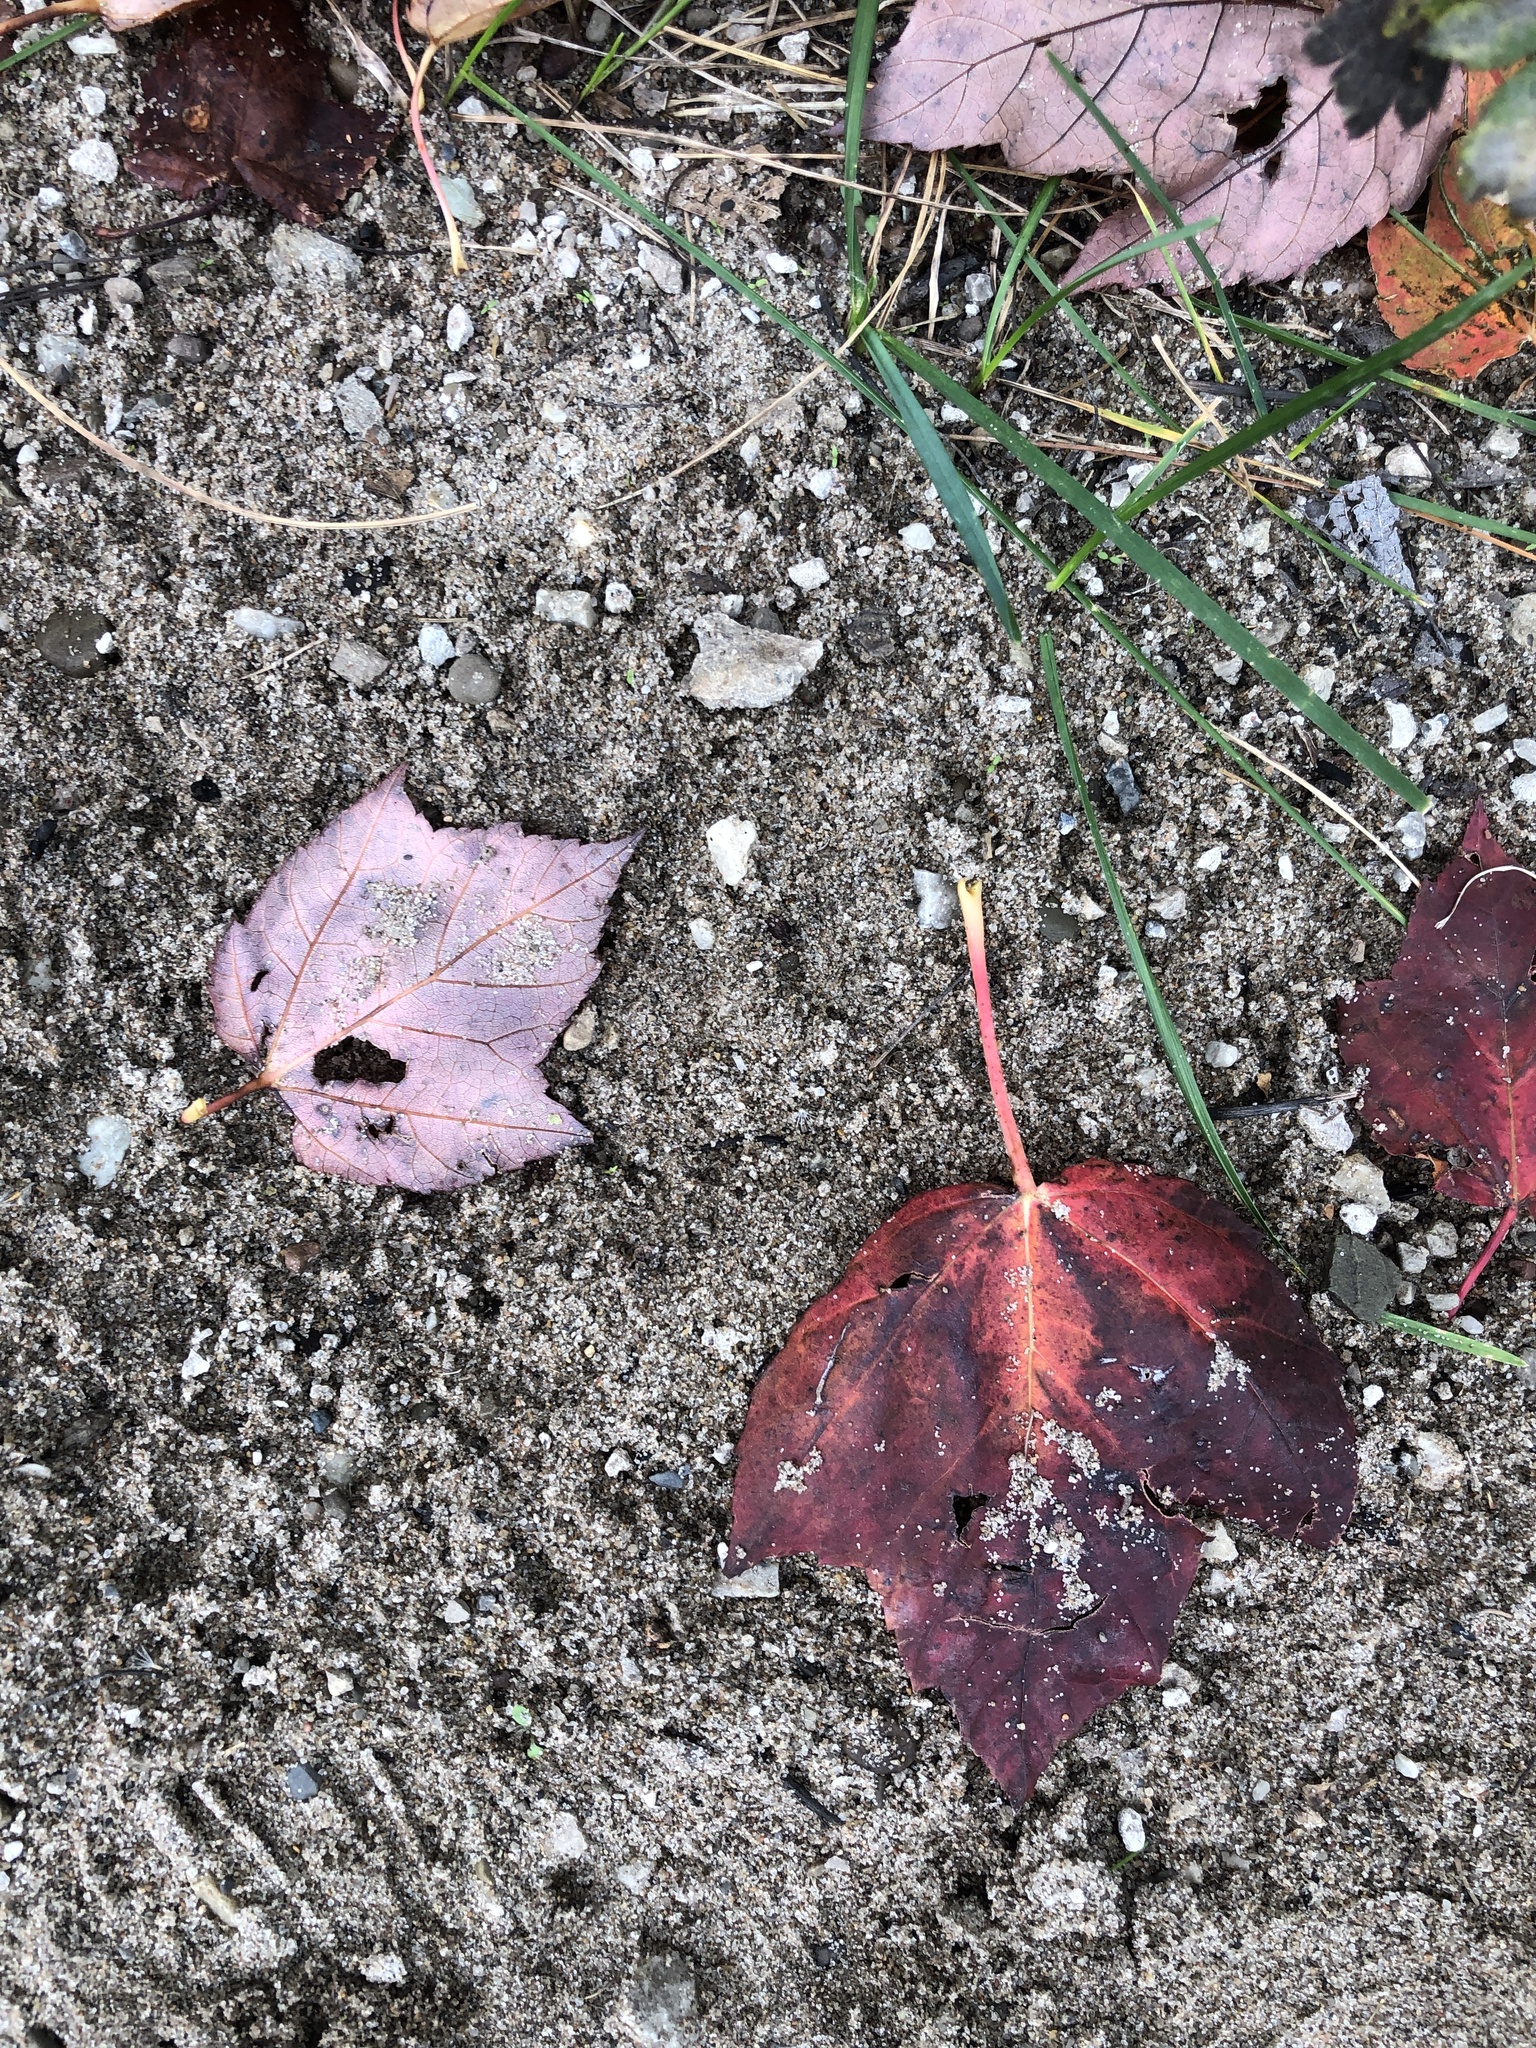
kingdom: Plantae
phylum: Tracheophyta
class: Magnoliopsida
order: Sapindales
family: Sapindaceae
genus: Acer
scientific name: Acer rubrum
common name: Red maple
